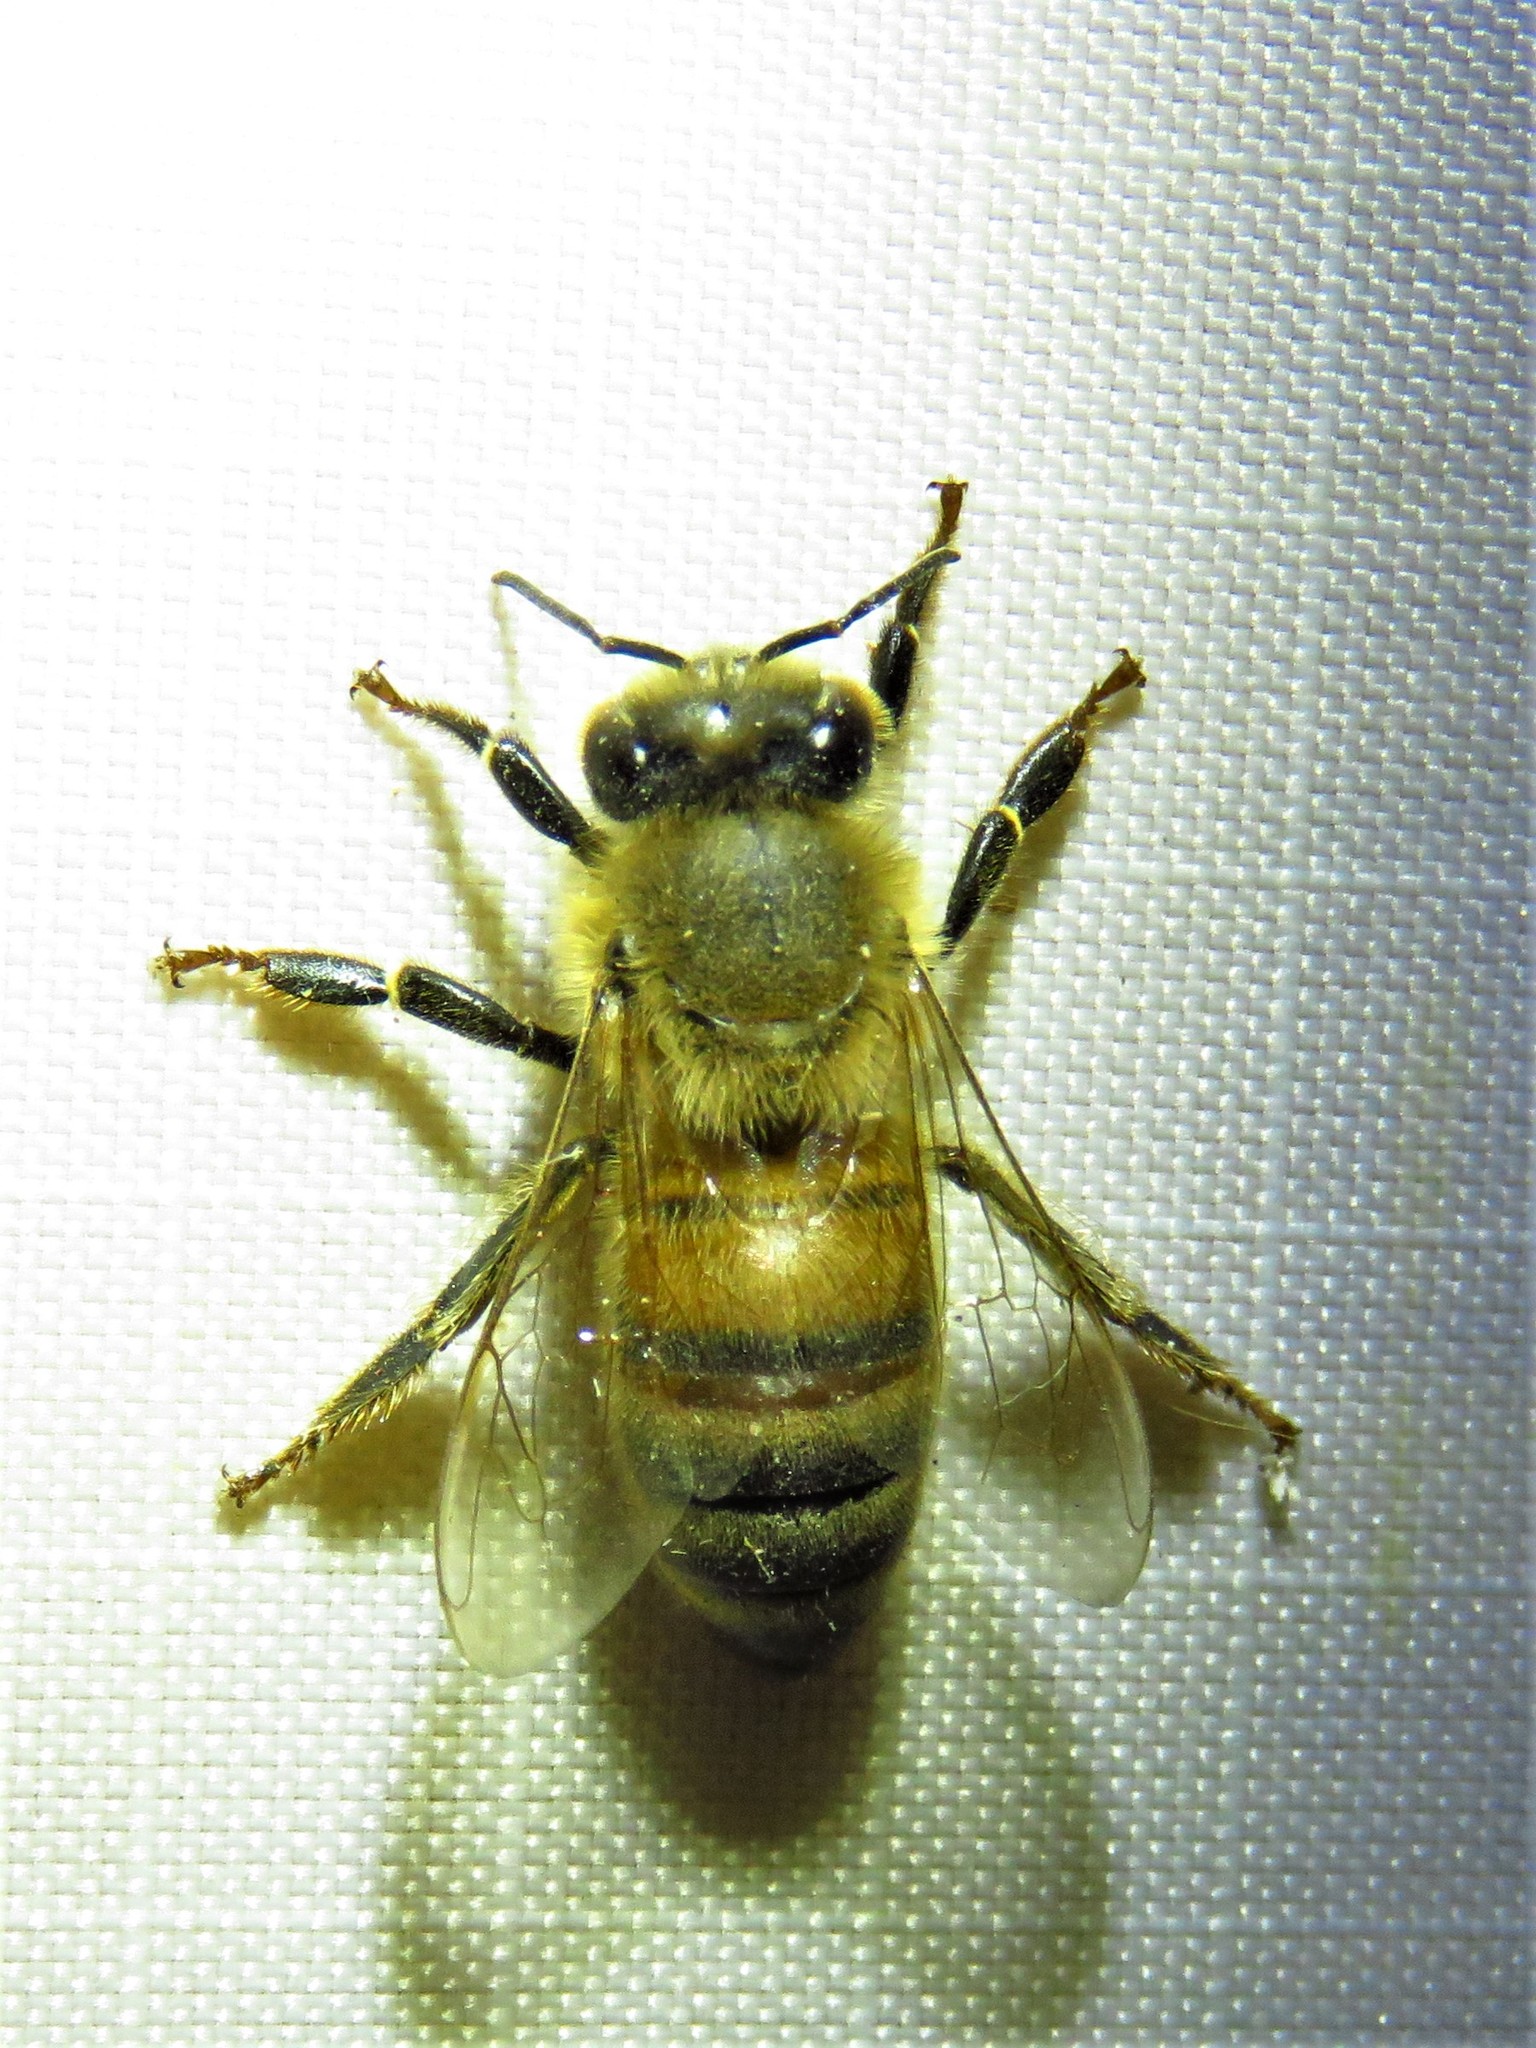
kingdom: Animalia
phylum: Arthropoda
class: Insecta
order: Hymenoptera
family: Apidae
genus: Apis
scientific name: Apis mellifera
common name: Honey bee
